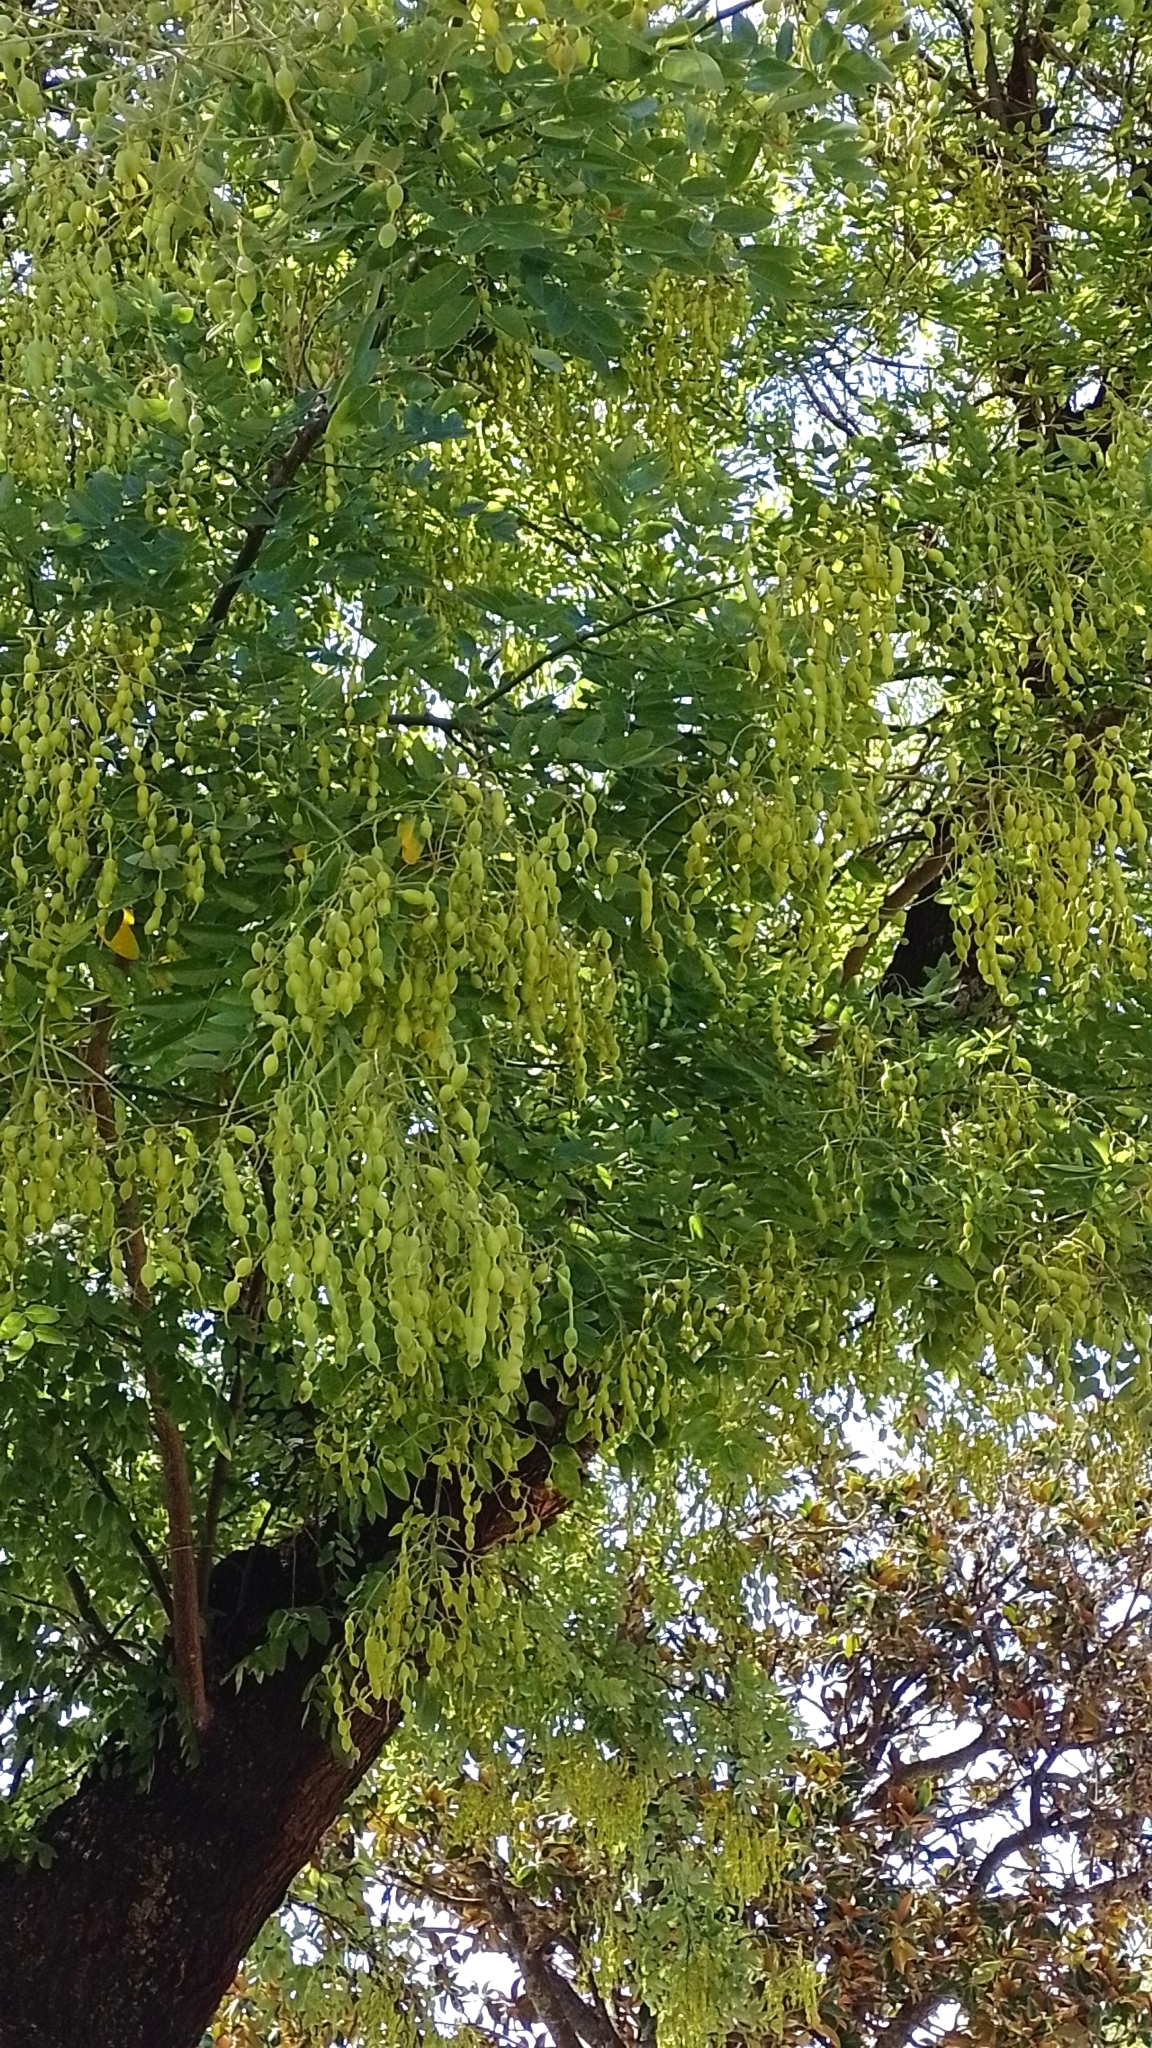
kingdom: Plantae
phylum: Tracheophyta
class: Magnoliopsida
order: Fabales
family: Fabaceae
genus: Styphnolobium
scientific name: Styphnolobium japonicum
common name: Chinese scholartree
